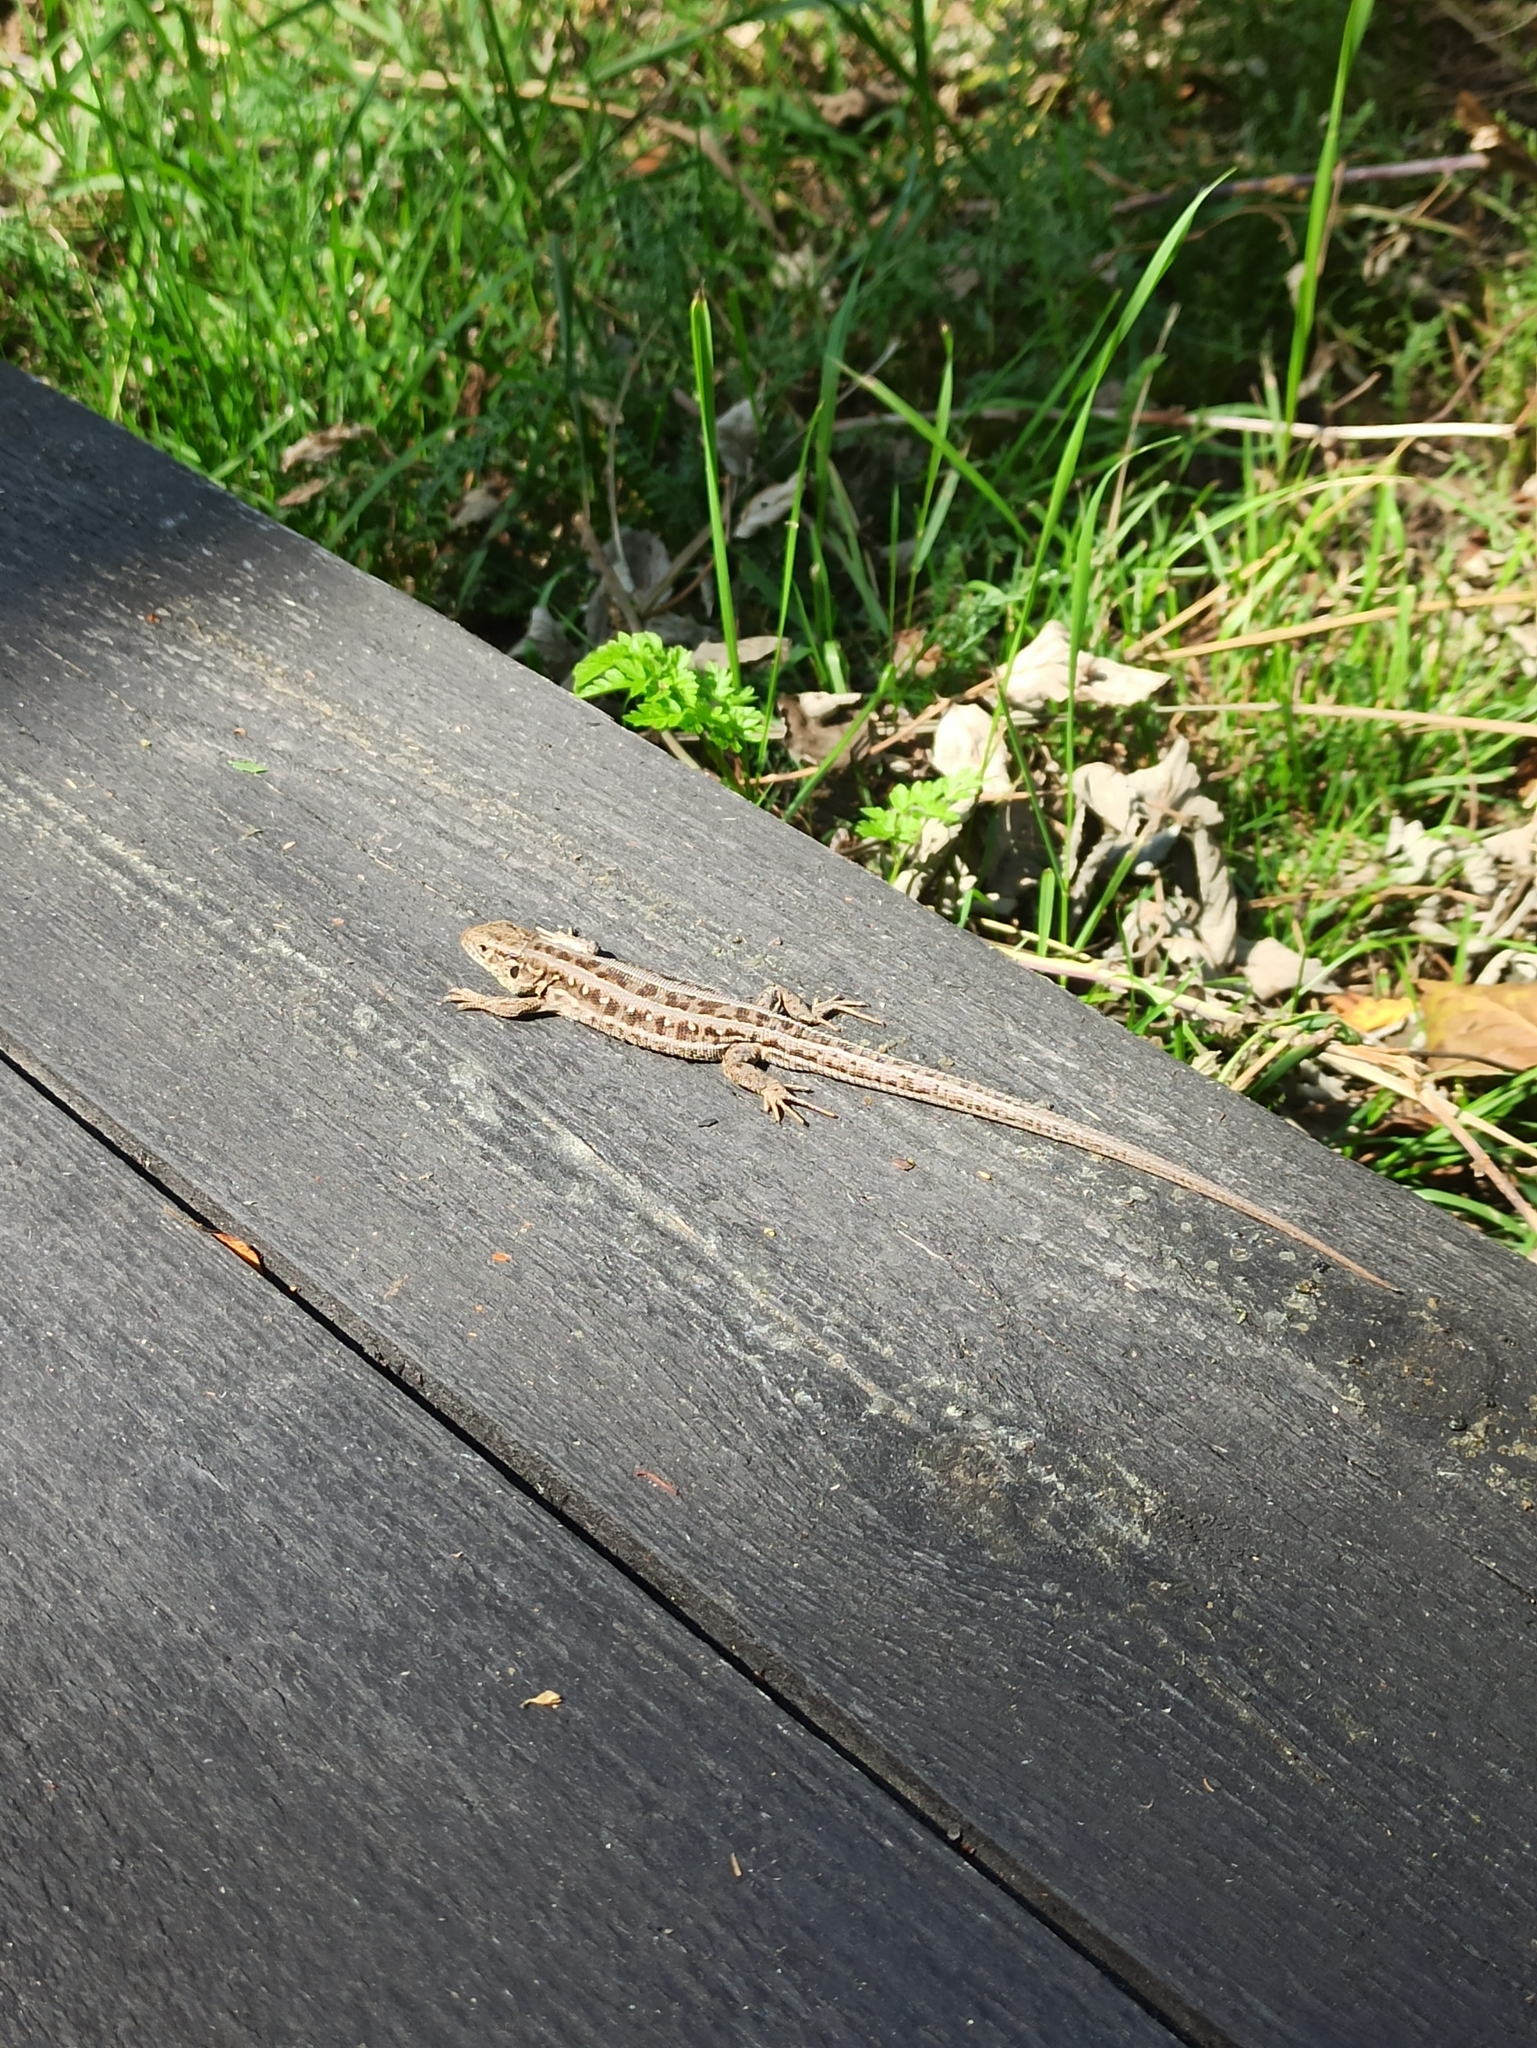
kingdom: Animalia
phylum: Chordata
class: Squamata
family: Lacertidae
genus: Lacerta
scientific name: Lacerta agilis
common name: Sand lizard
